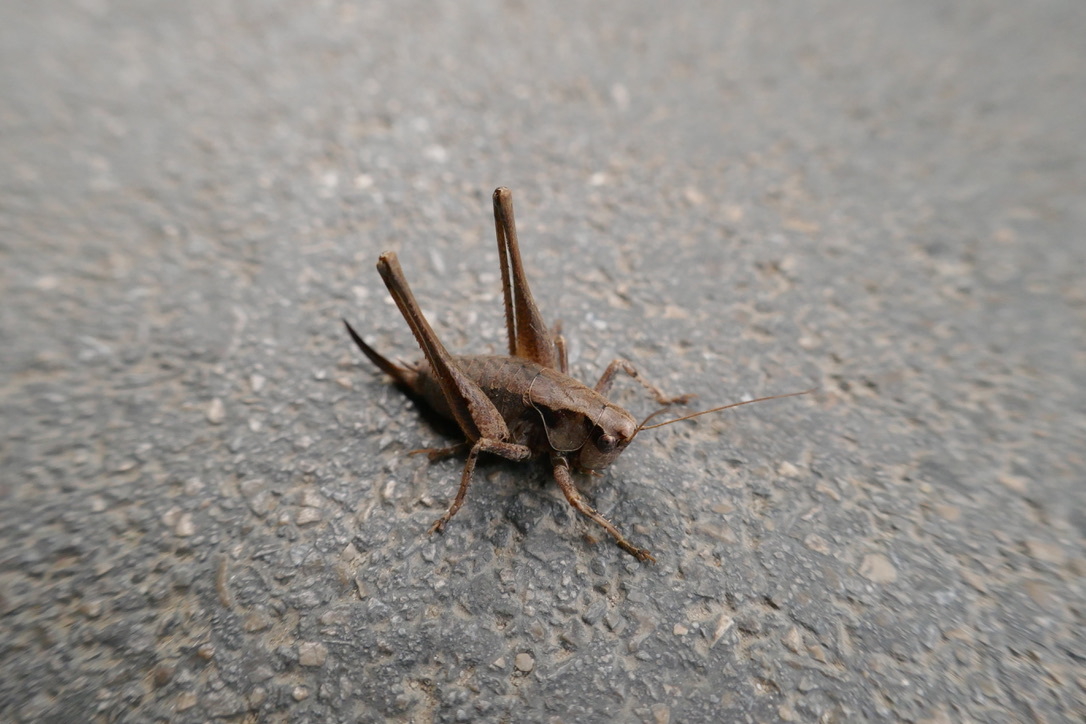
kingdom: Animalia
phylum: Arthropoda
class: Insecta
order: Orthoptera
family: Tettigoniidae
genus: Pholidoptera
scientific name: Pholidoptera griseoaptera
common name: Dark bush-cricket
